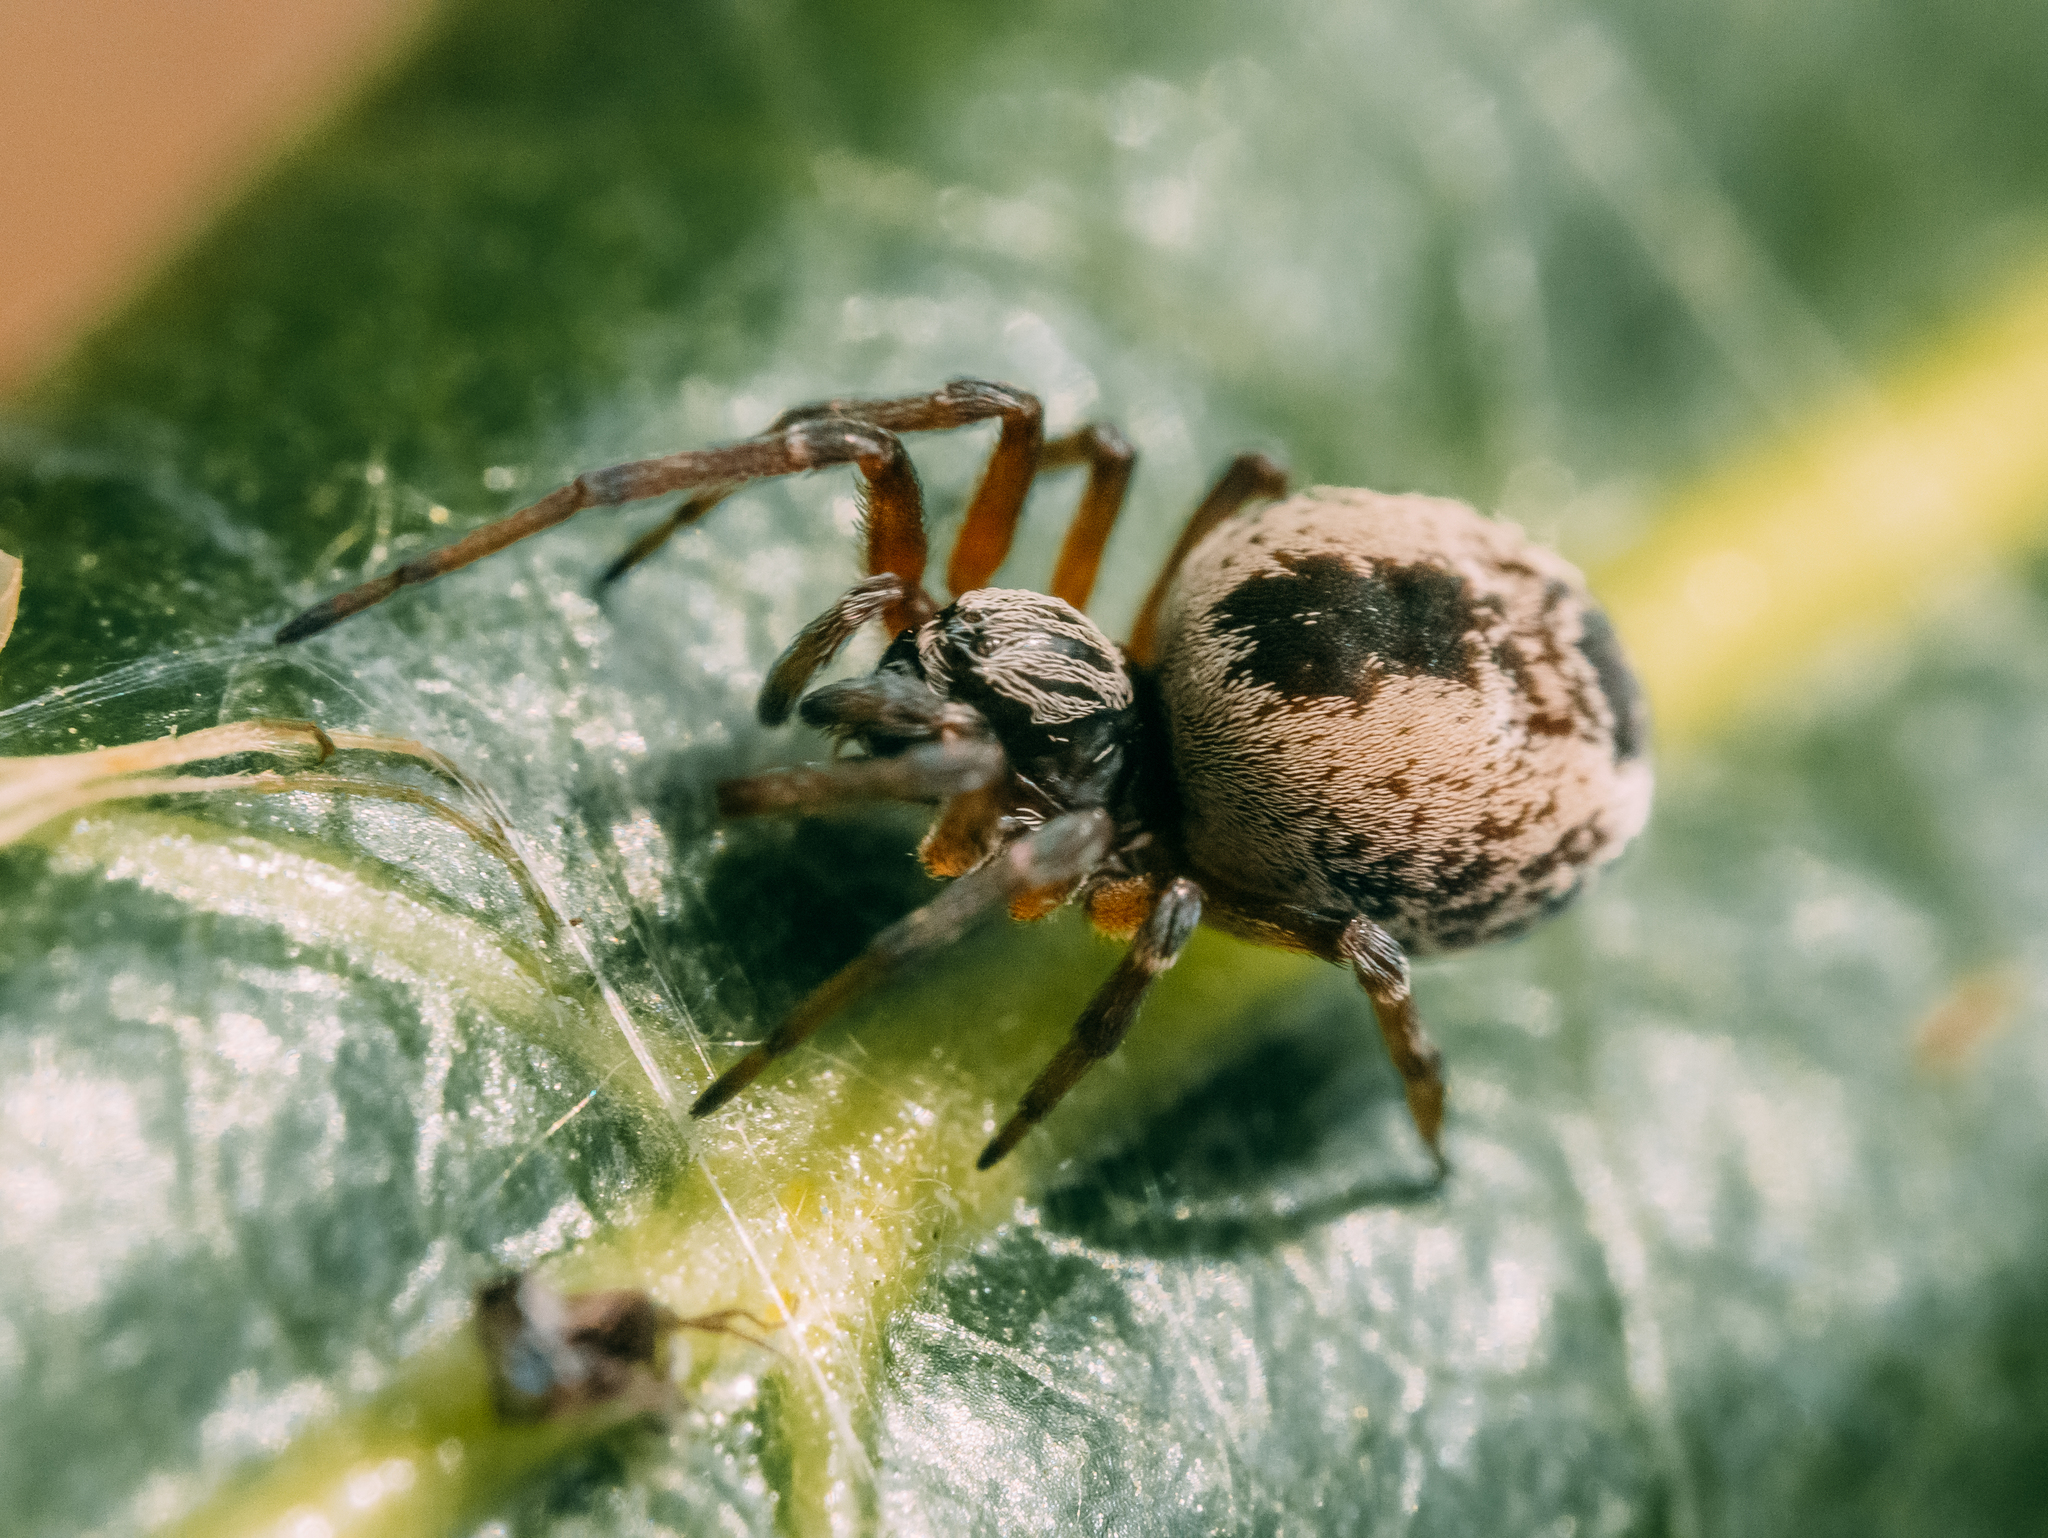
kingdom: Animalia
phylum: Arthropoda
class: Arachnida
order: Araneae
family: Dictynidae
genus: Dictyna
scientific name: Dictyna arundinacea
